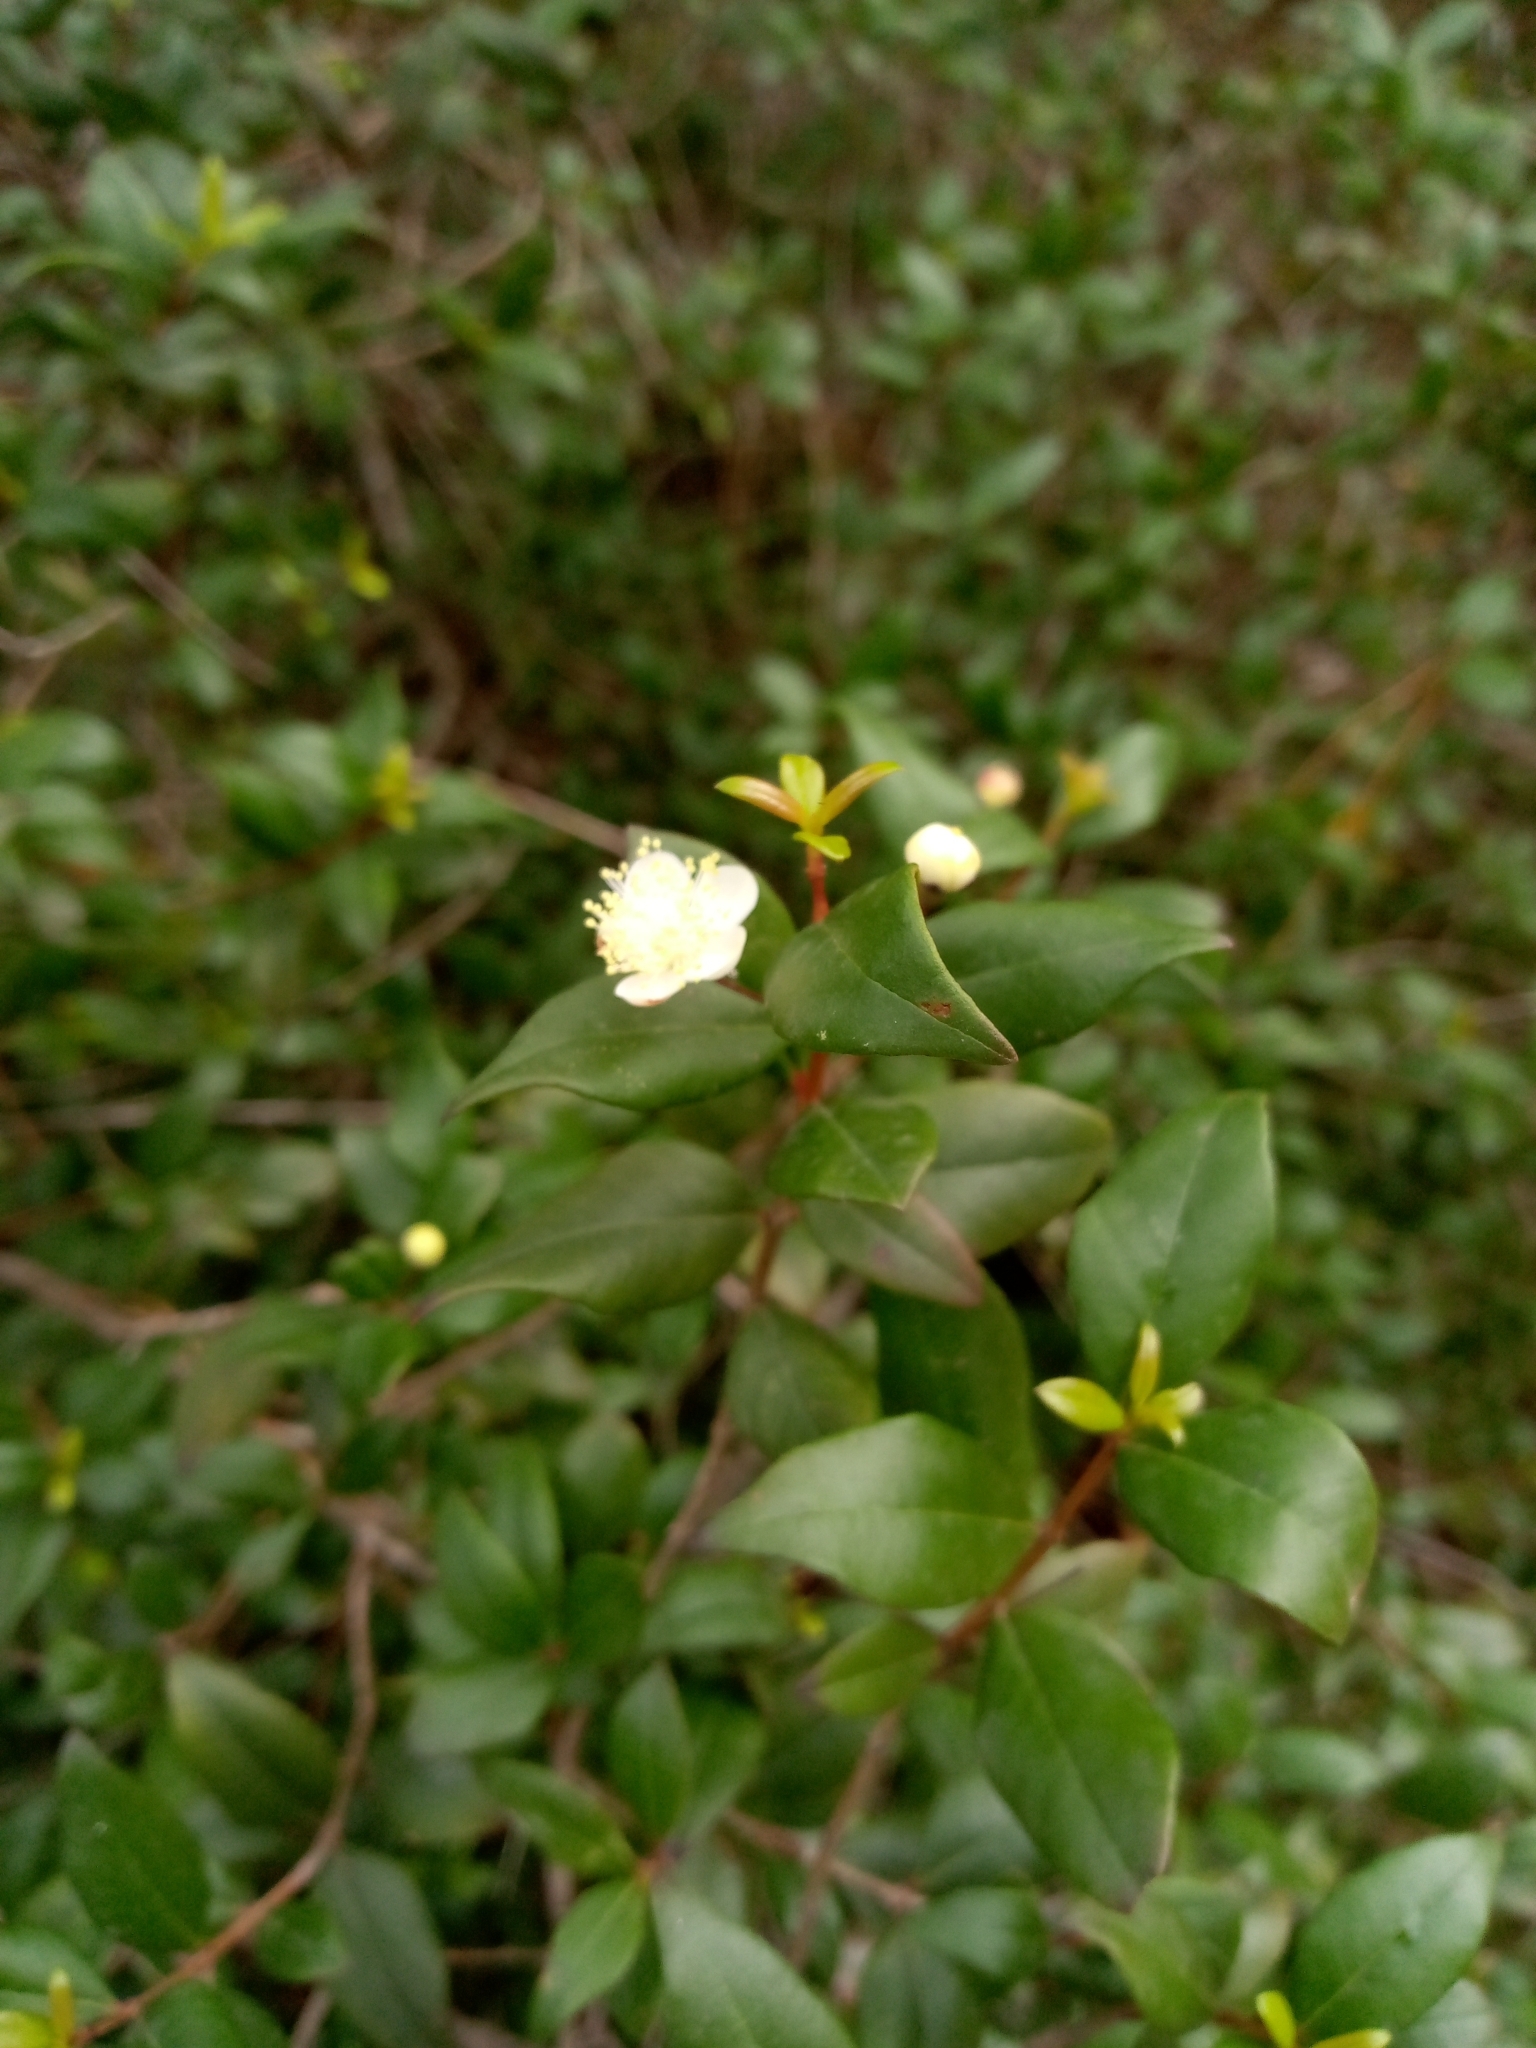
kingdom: Plantae
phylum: Tracheophyta
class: Magnoliopsida
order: Myrtales
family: Myrtaceae
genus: Myrtus
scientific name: Myrtus communis
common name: Myrtle
